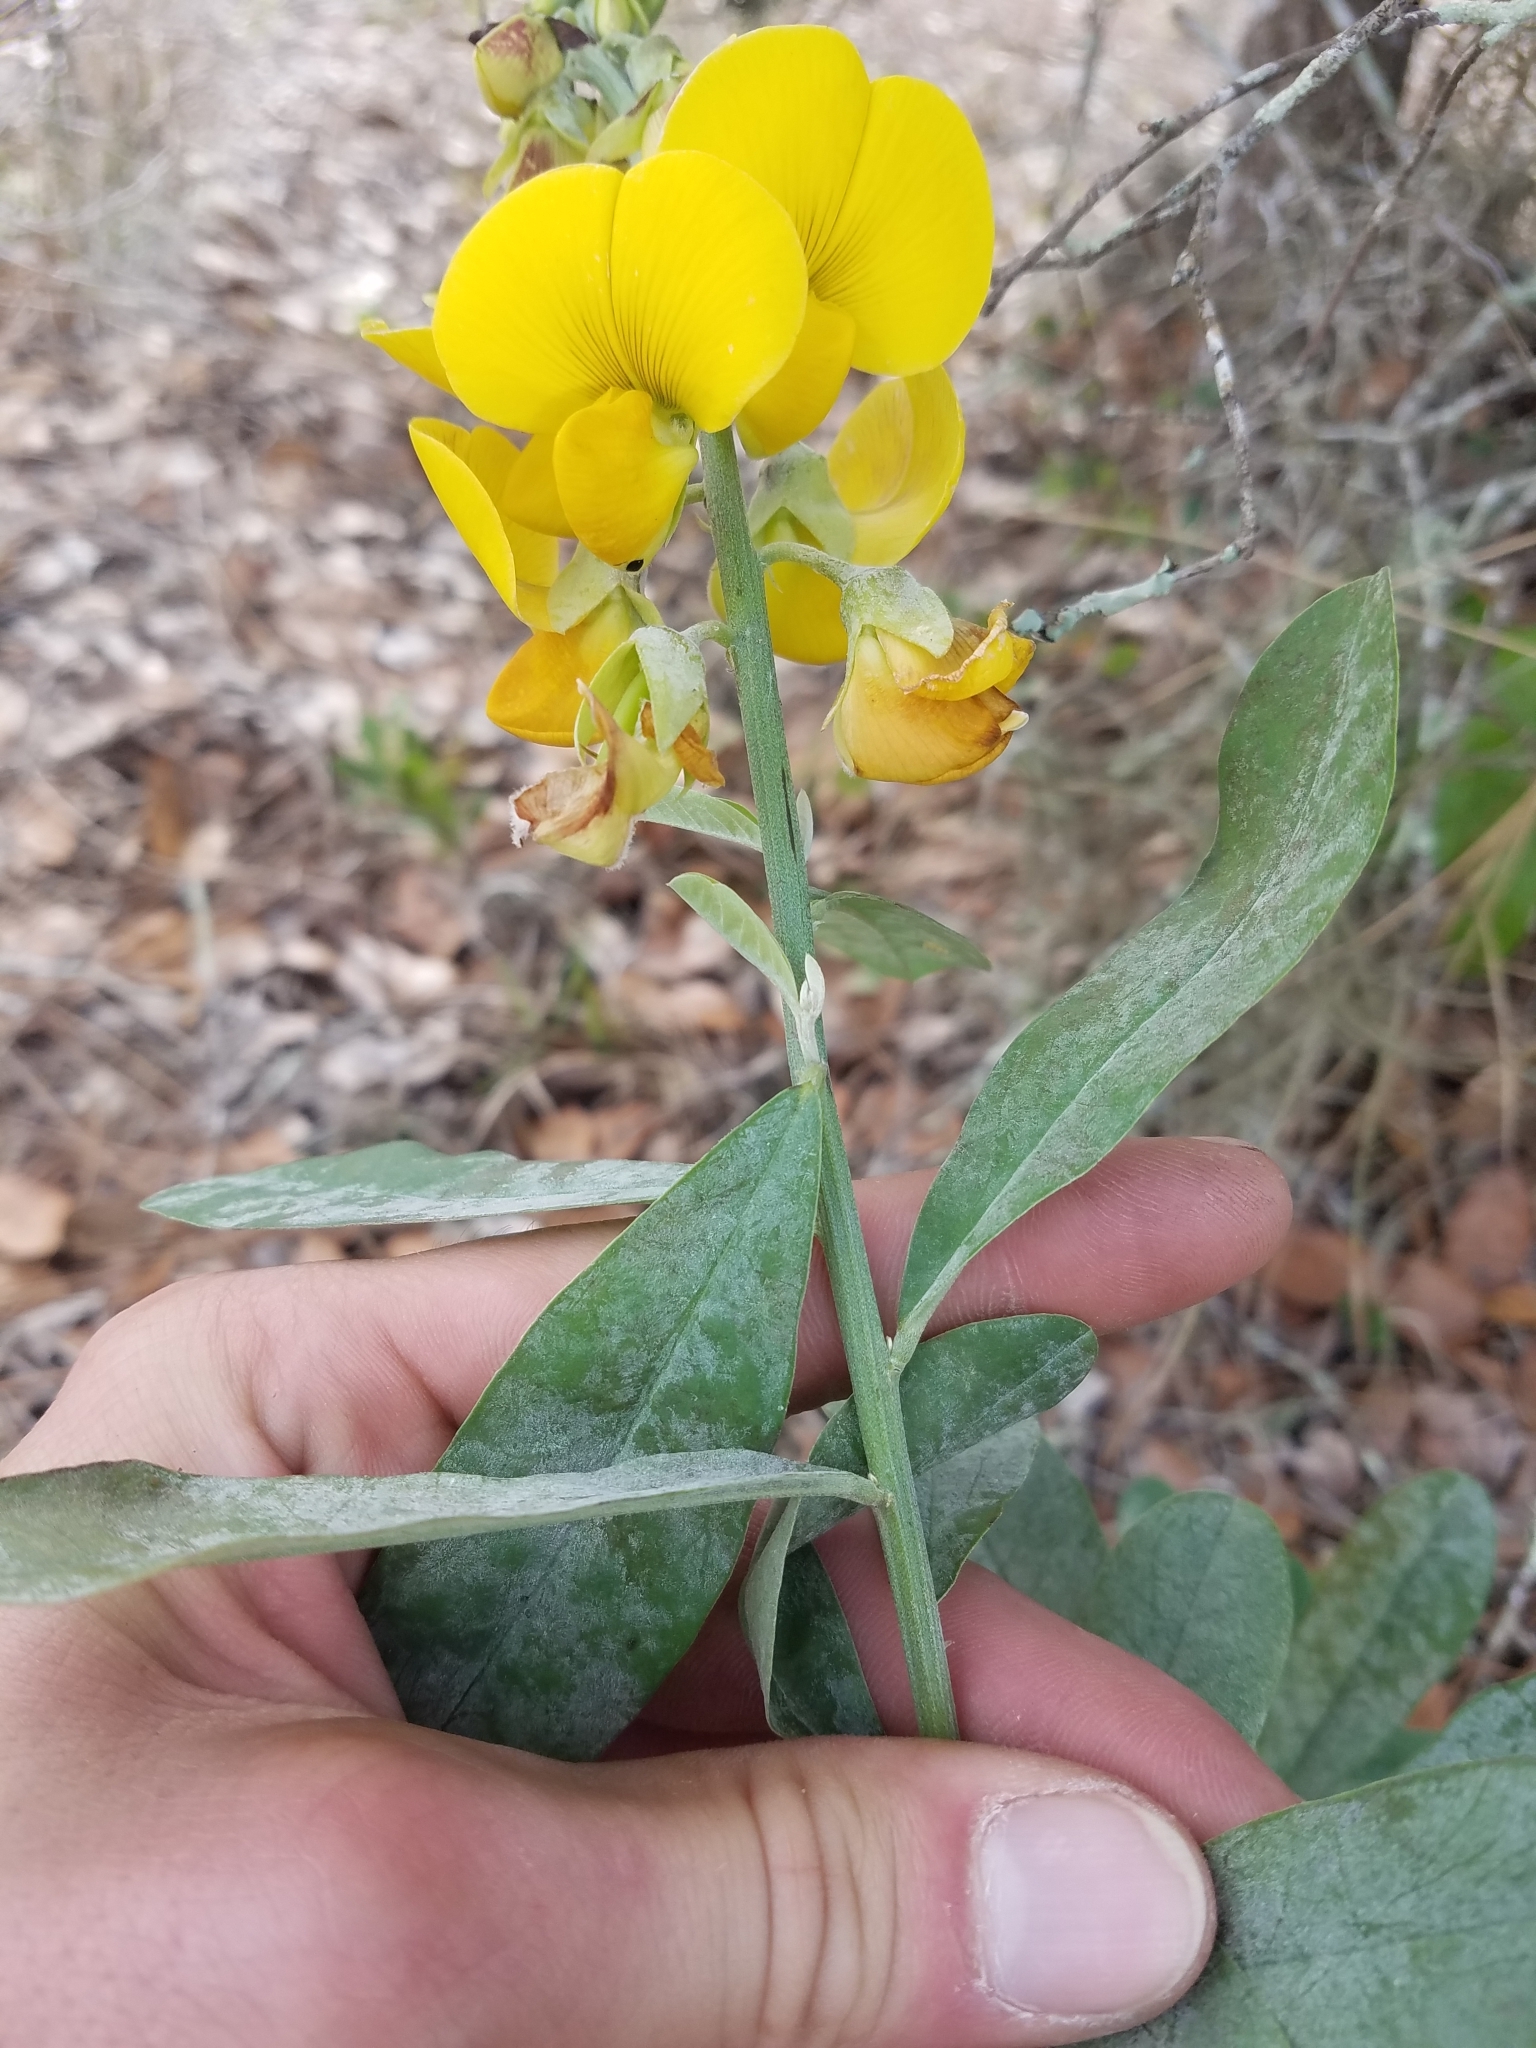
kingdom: Plantae
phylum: Tracheophyta
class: Magnoliopsida
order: Fabales
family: Fabaceae
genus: Crotalaria
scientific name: Crotalaria spectabilis
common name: Showy rattlebox
